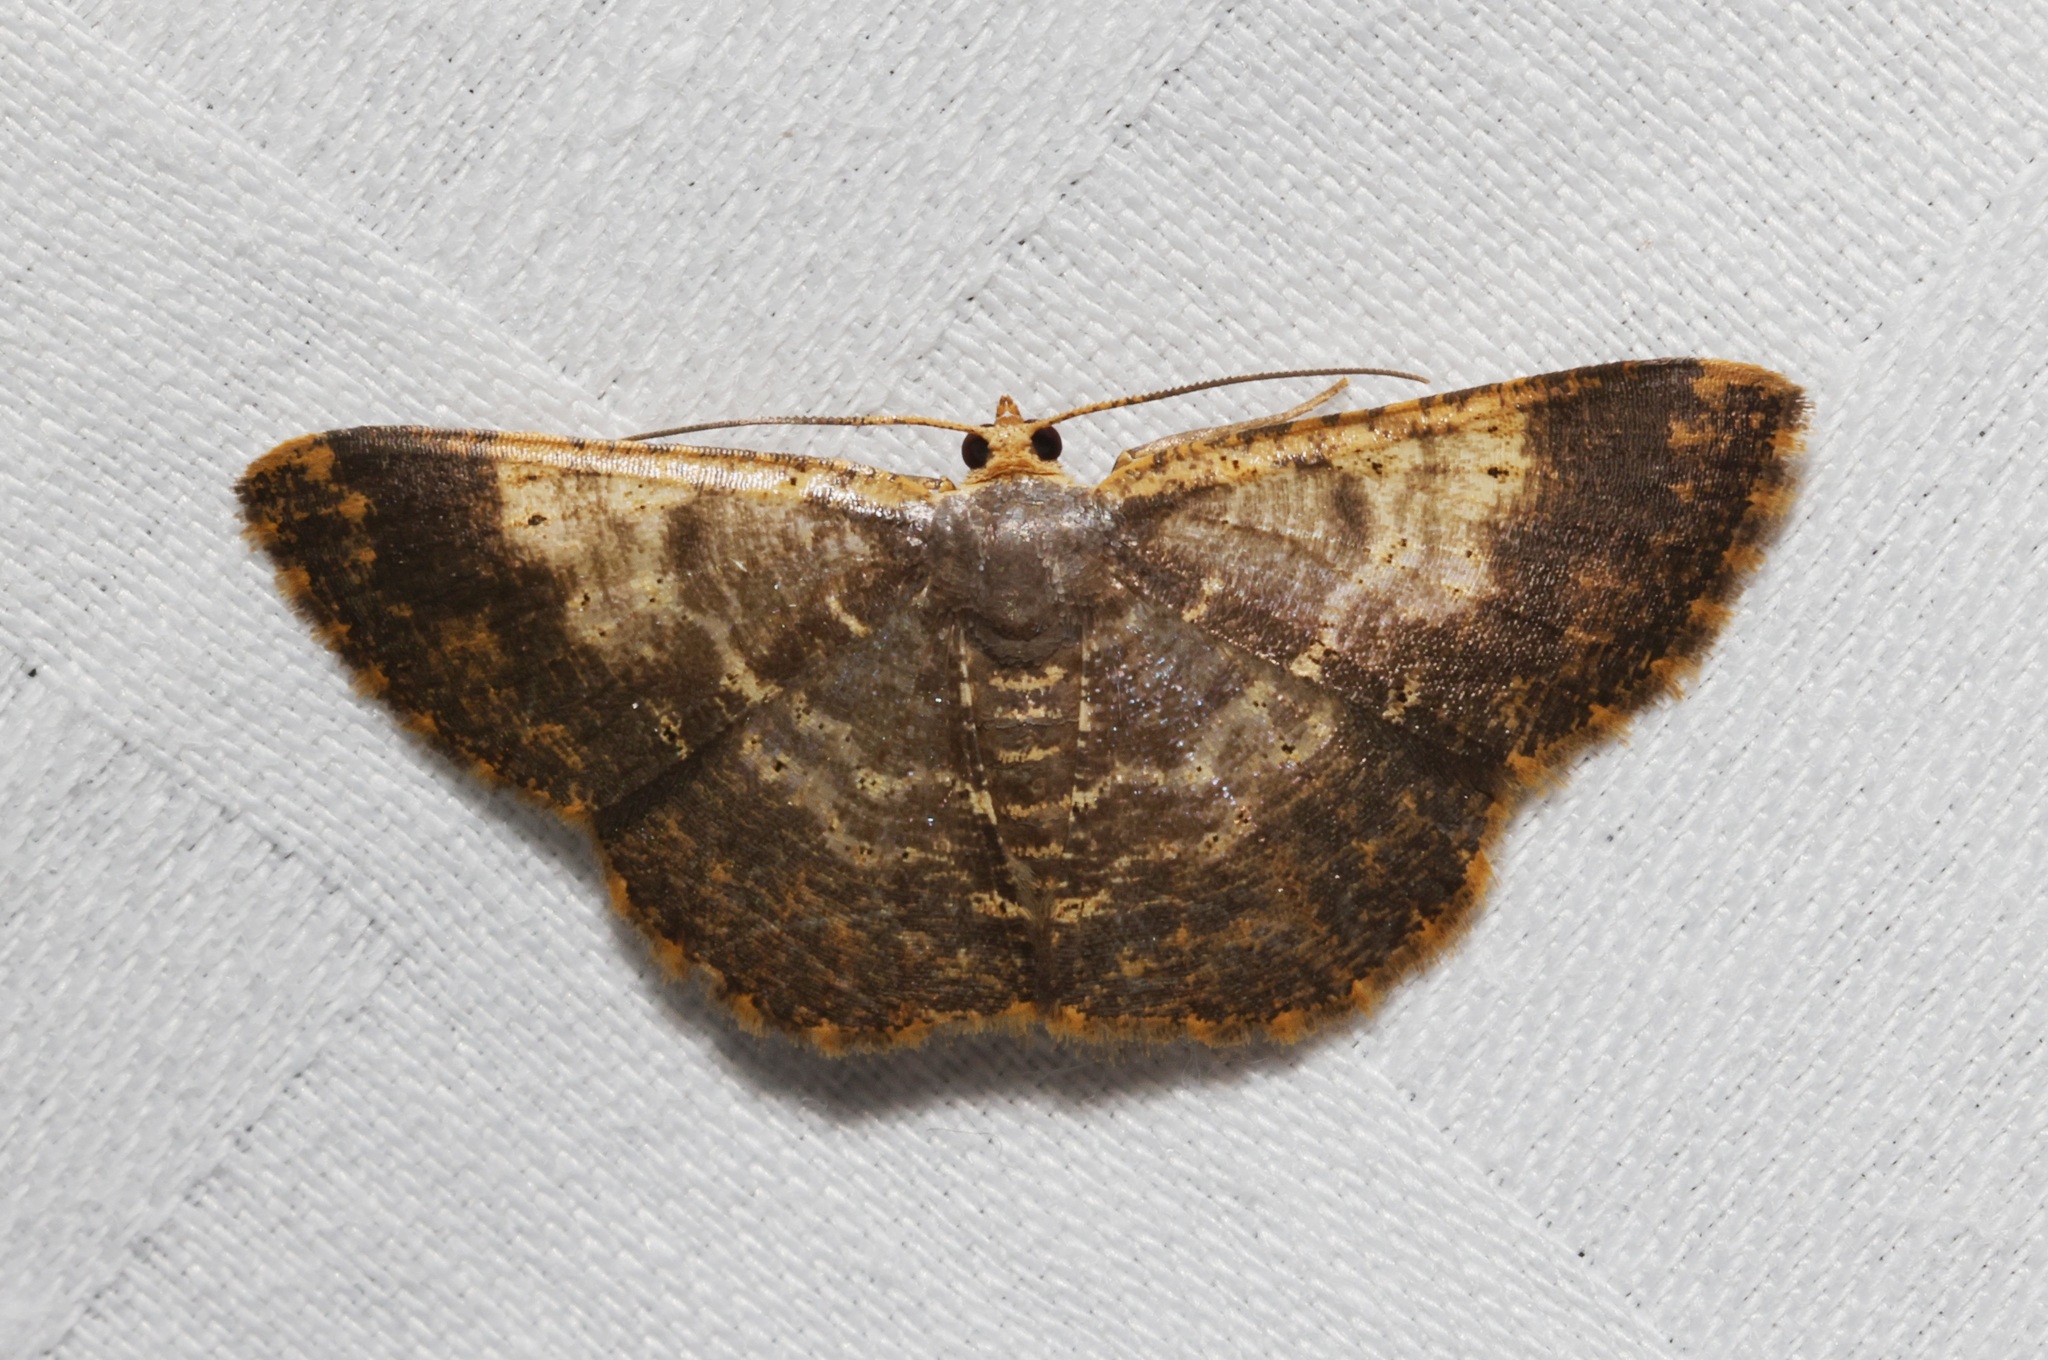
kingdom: Animalia
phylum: Arthropoda
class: Insecta
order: Lepidoptera
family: Geometridae
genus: Peratophyga
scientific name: Peratophyga crista
